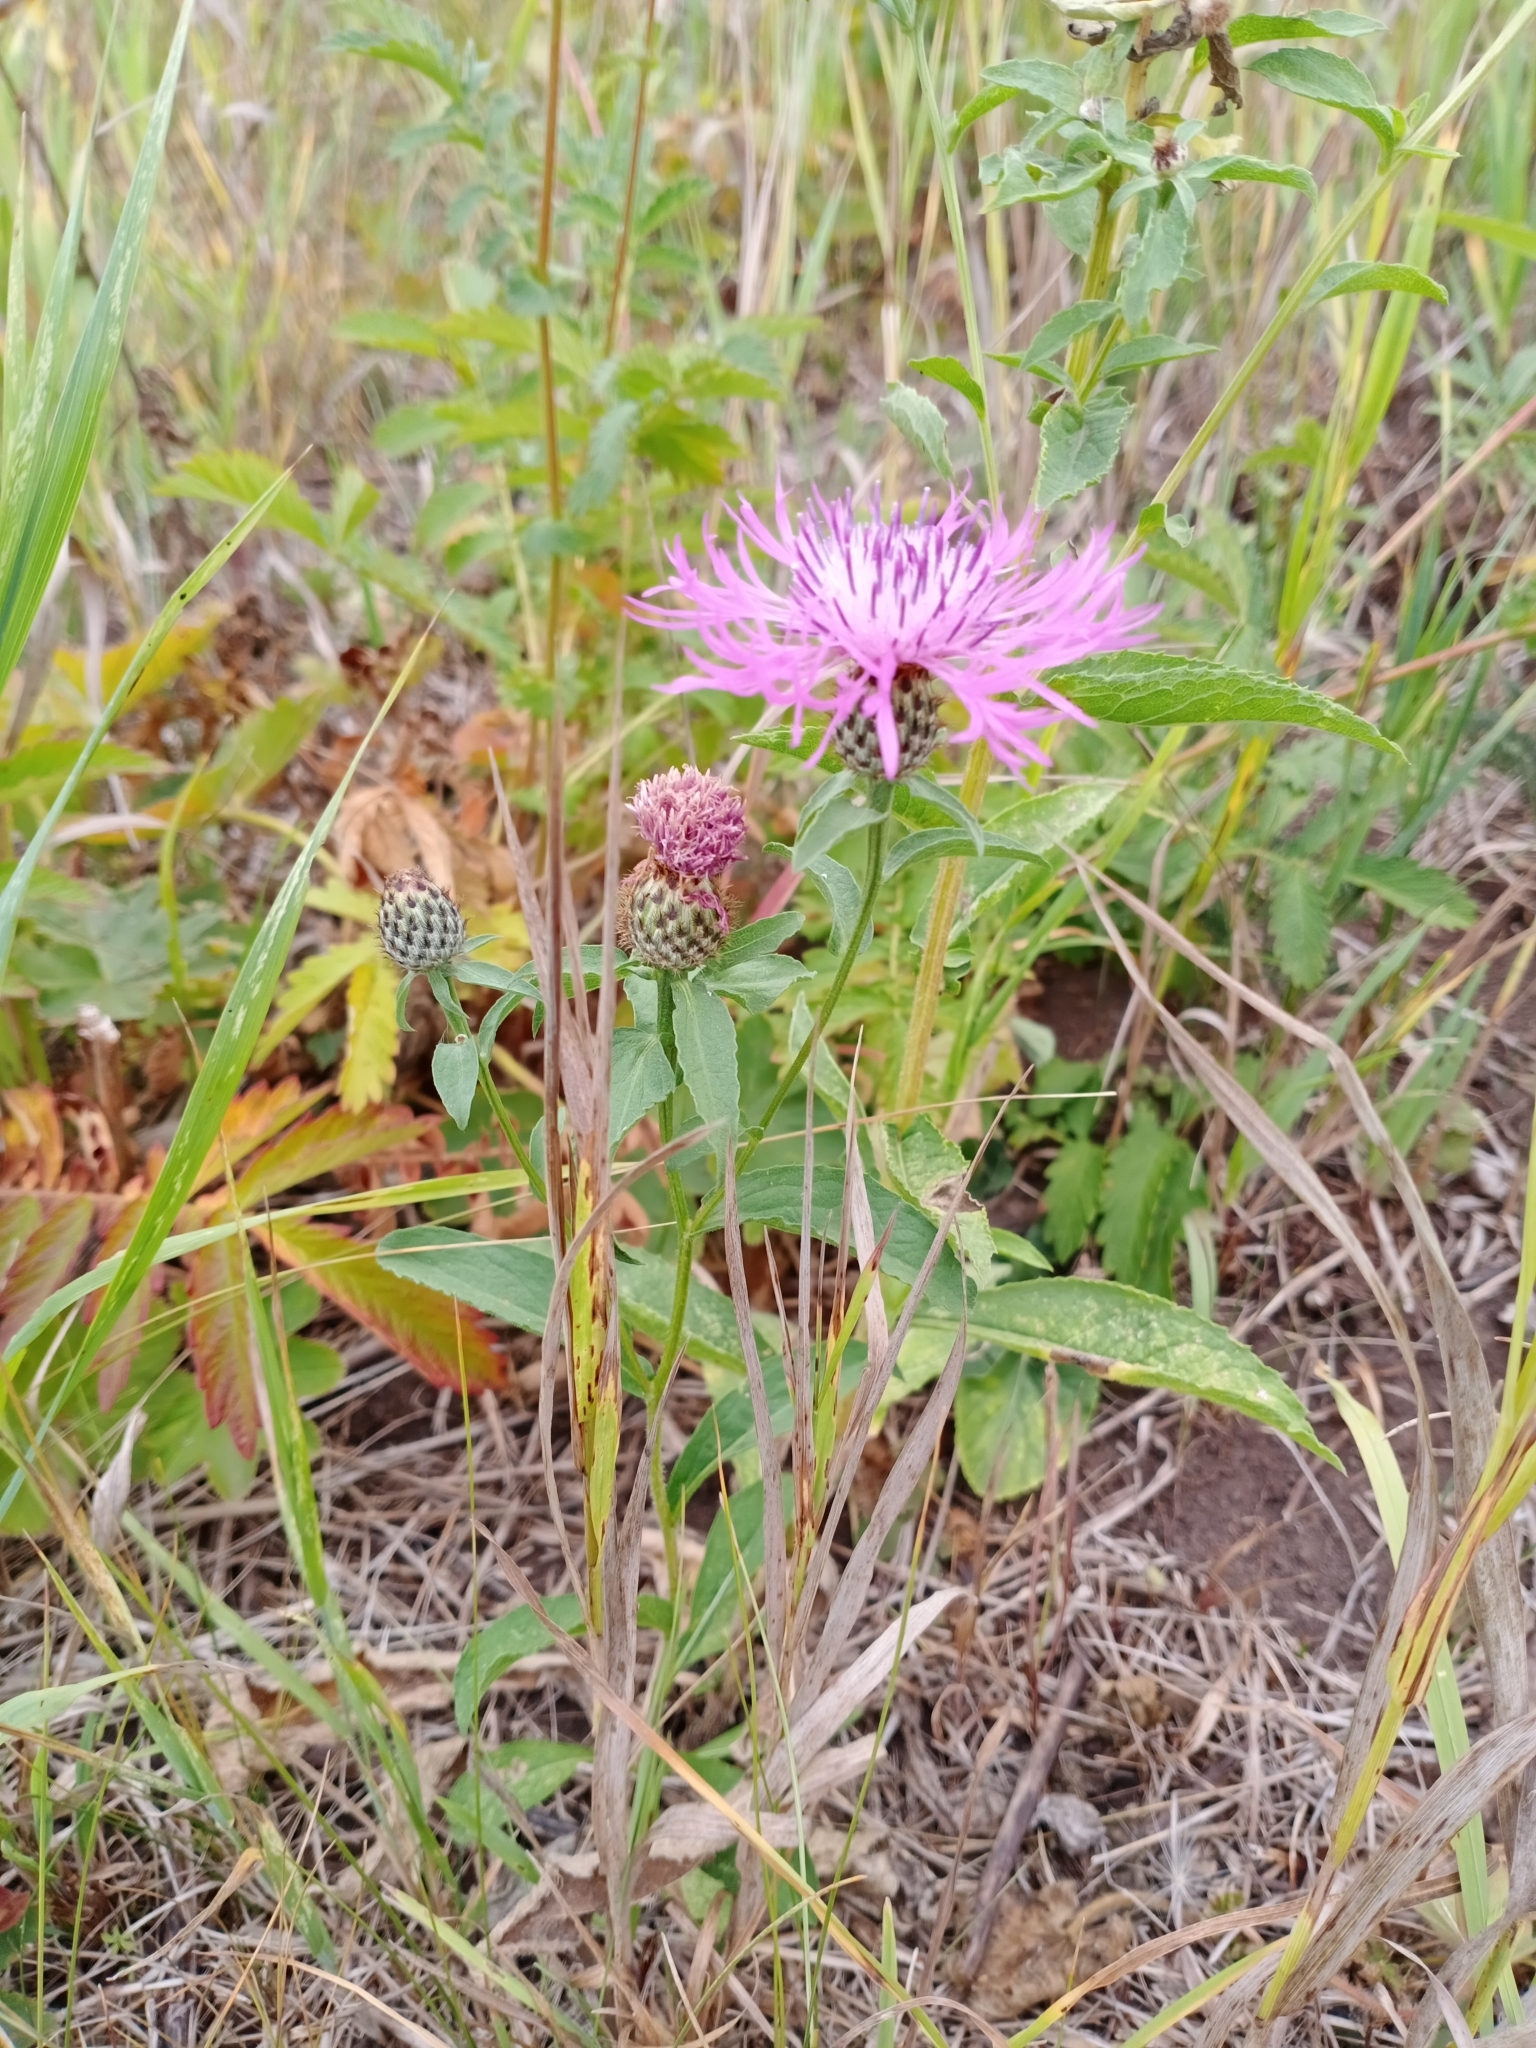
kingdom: Plantae
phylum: Tracheophyta
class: Magnoliopsida
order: Asterales
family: Asteraceae
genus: Centaurea
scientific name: Centaurea phrygia
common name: Wig knapweed
